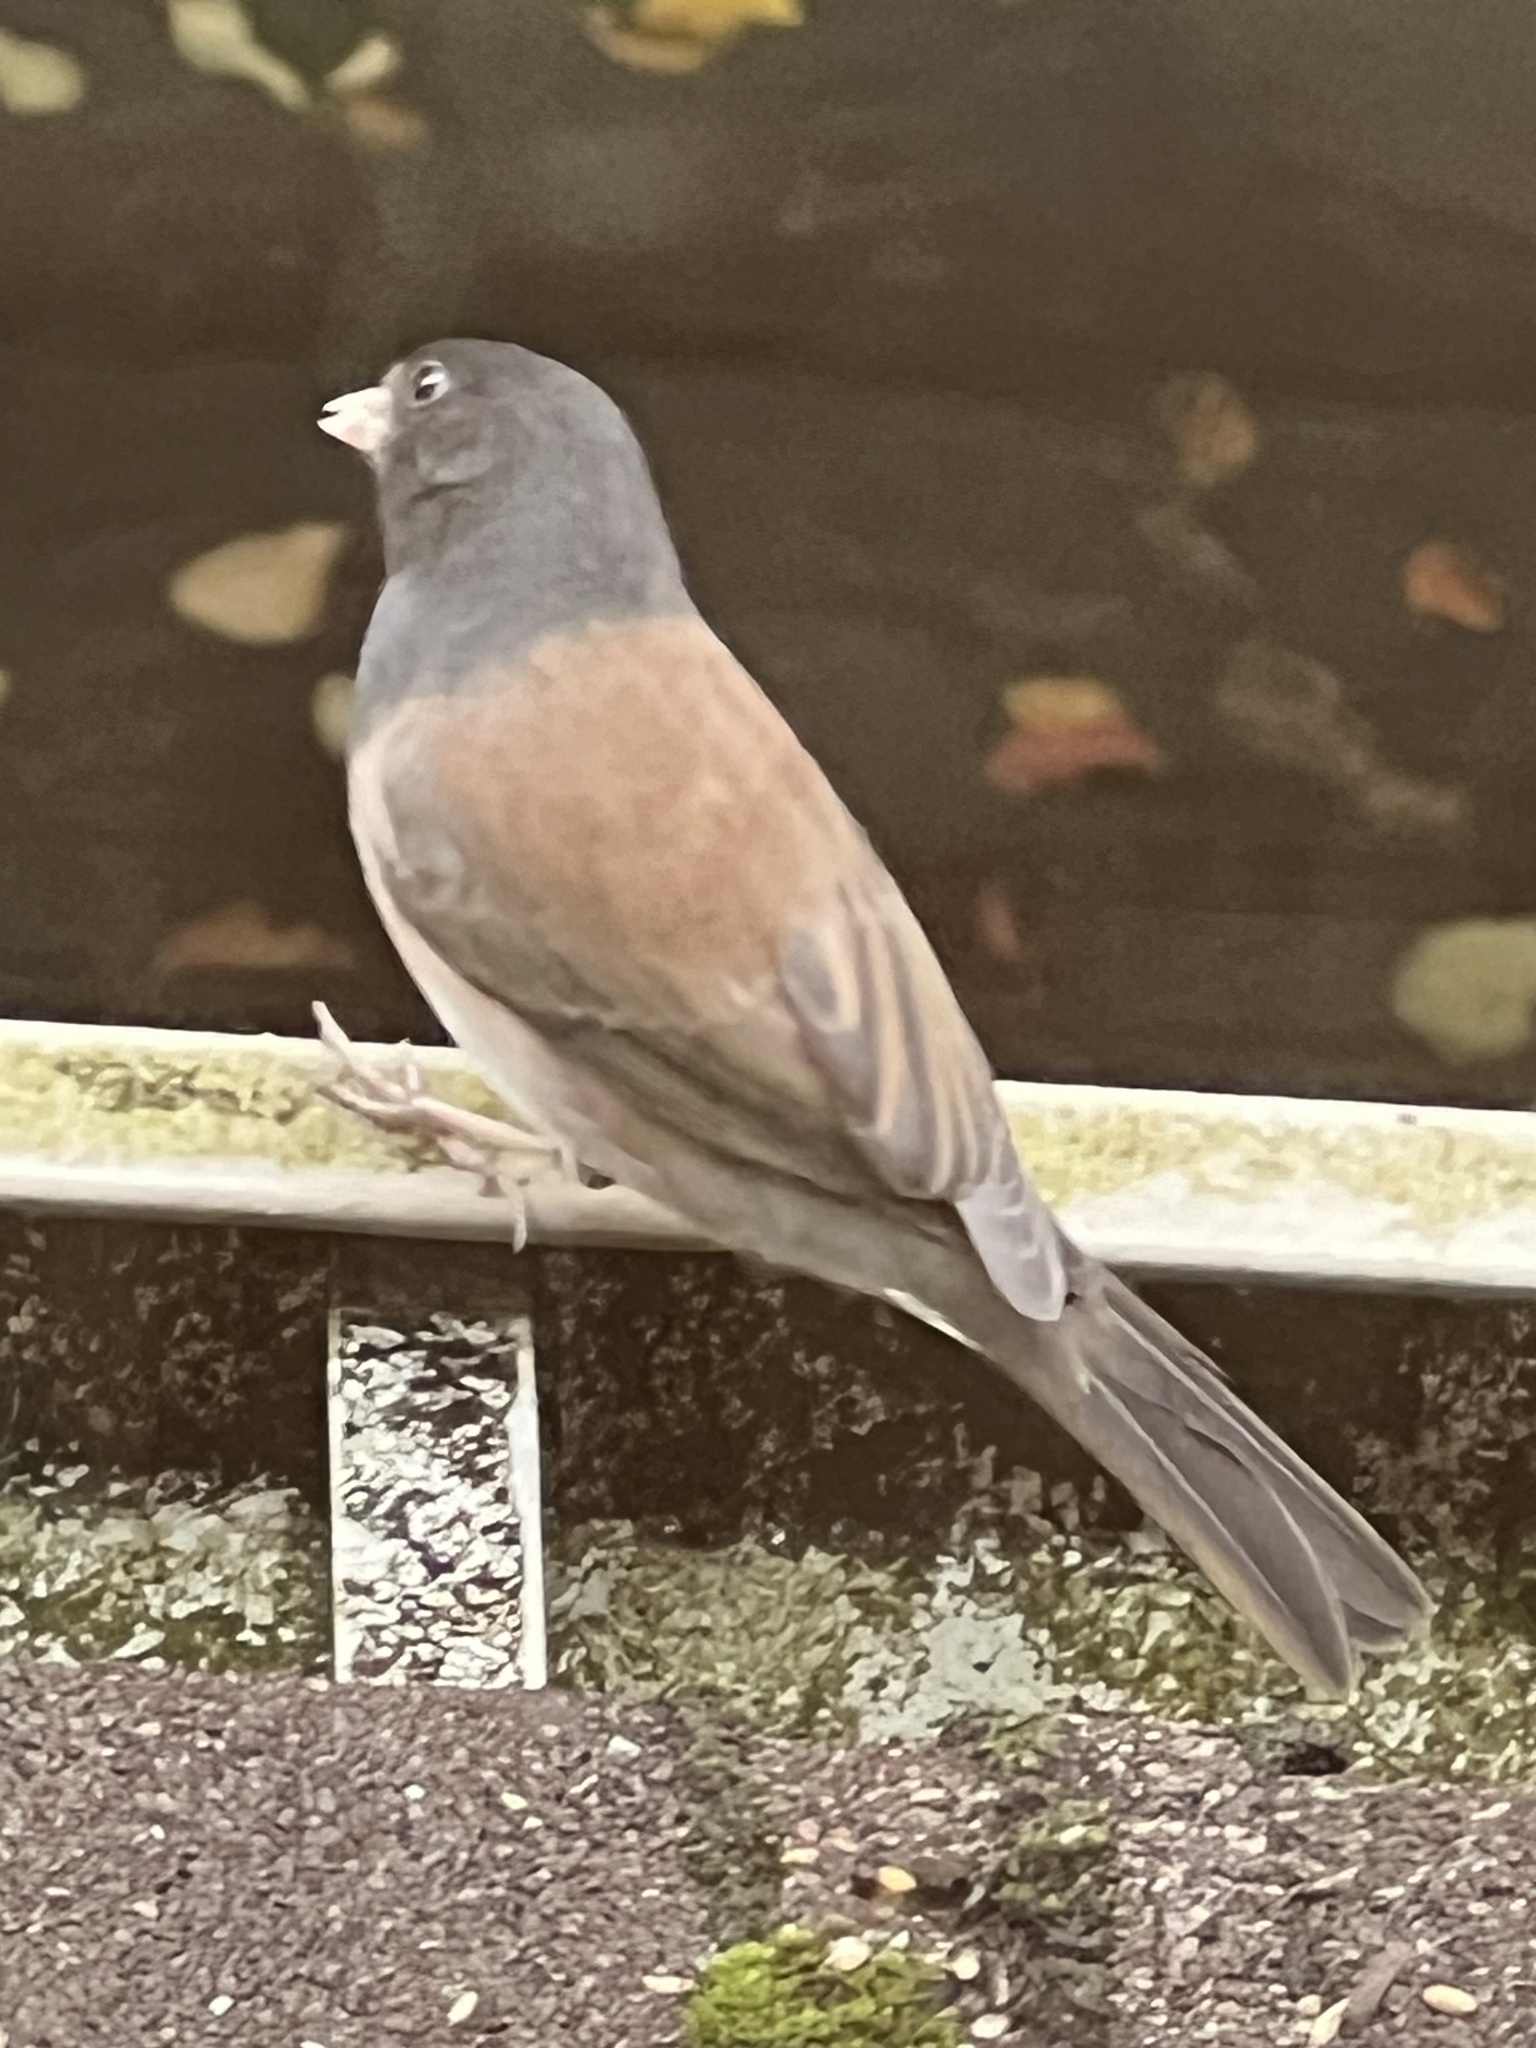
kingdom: Animalia
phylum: Chordata
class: Aves
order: Passeriformes
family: Passerellidae
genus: Junco
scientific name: Junco hyemalis
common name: Dark-eyed junco
